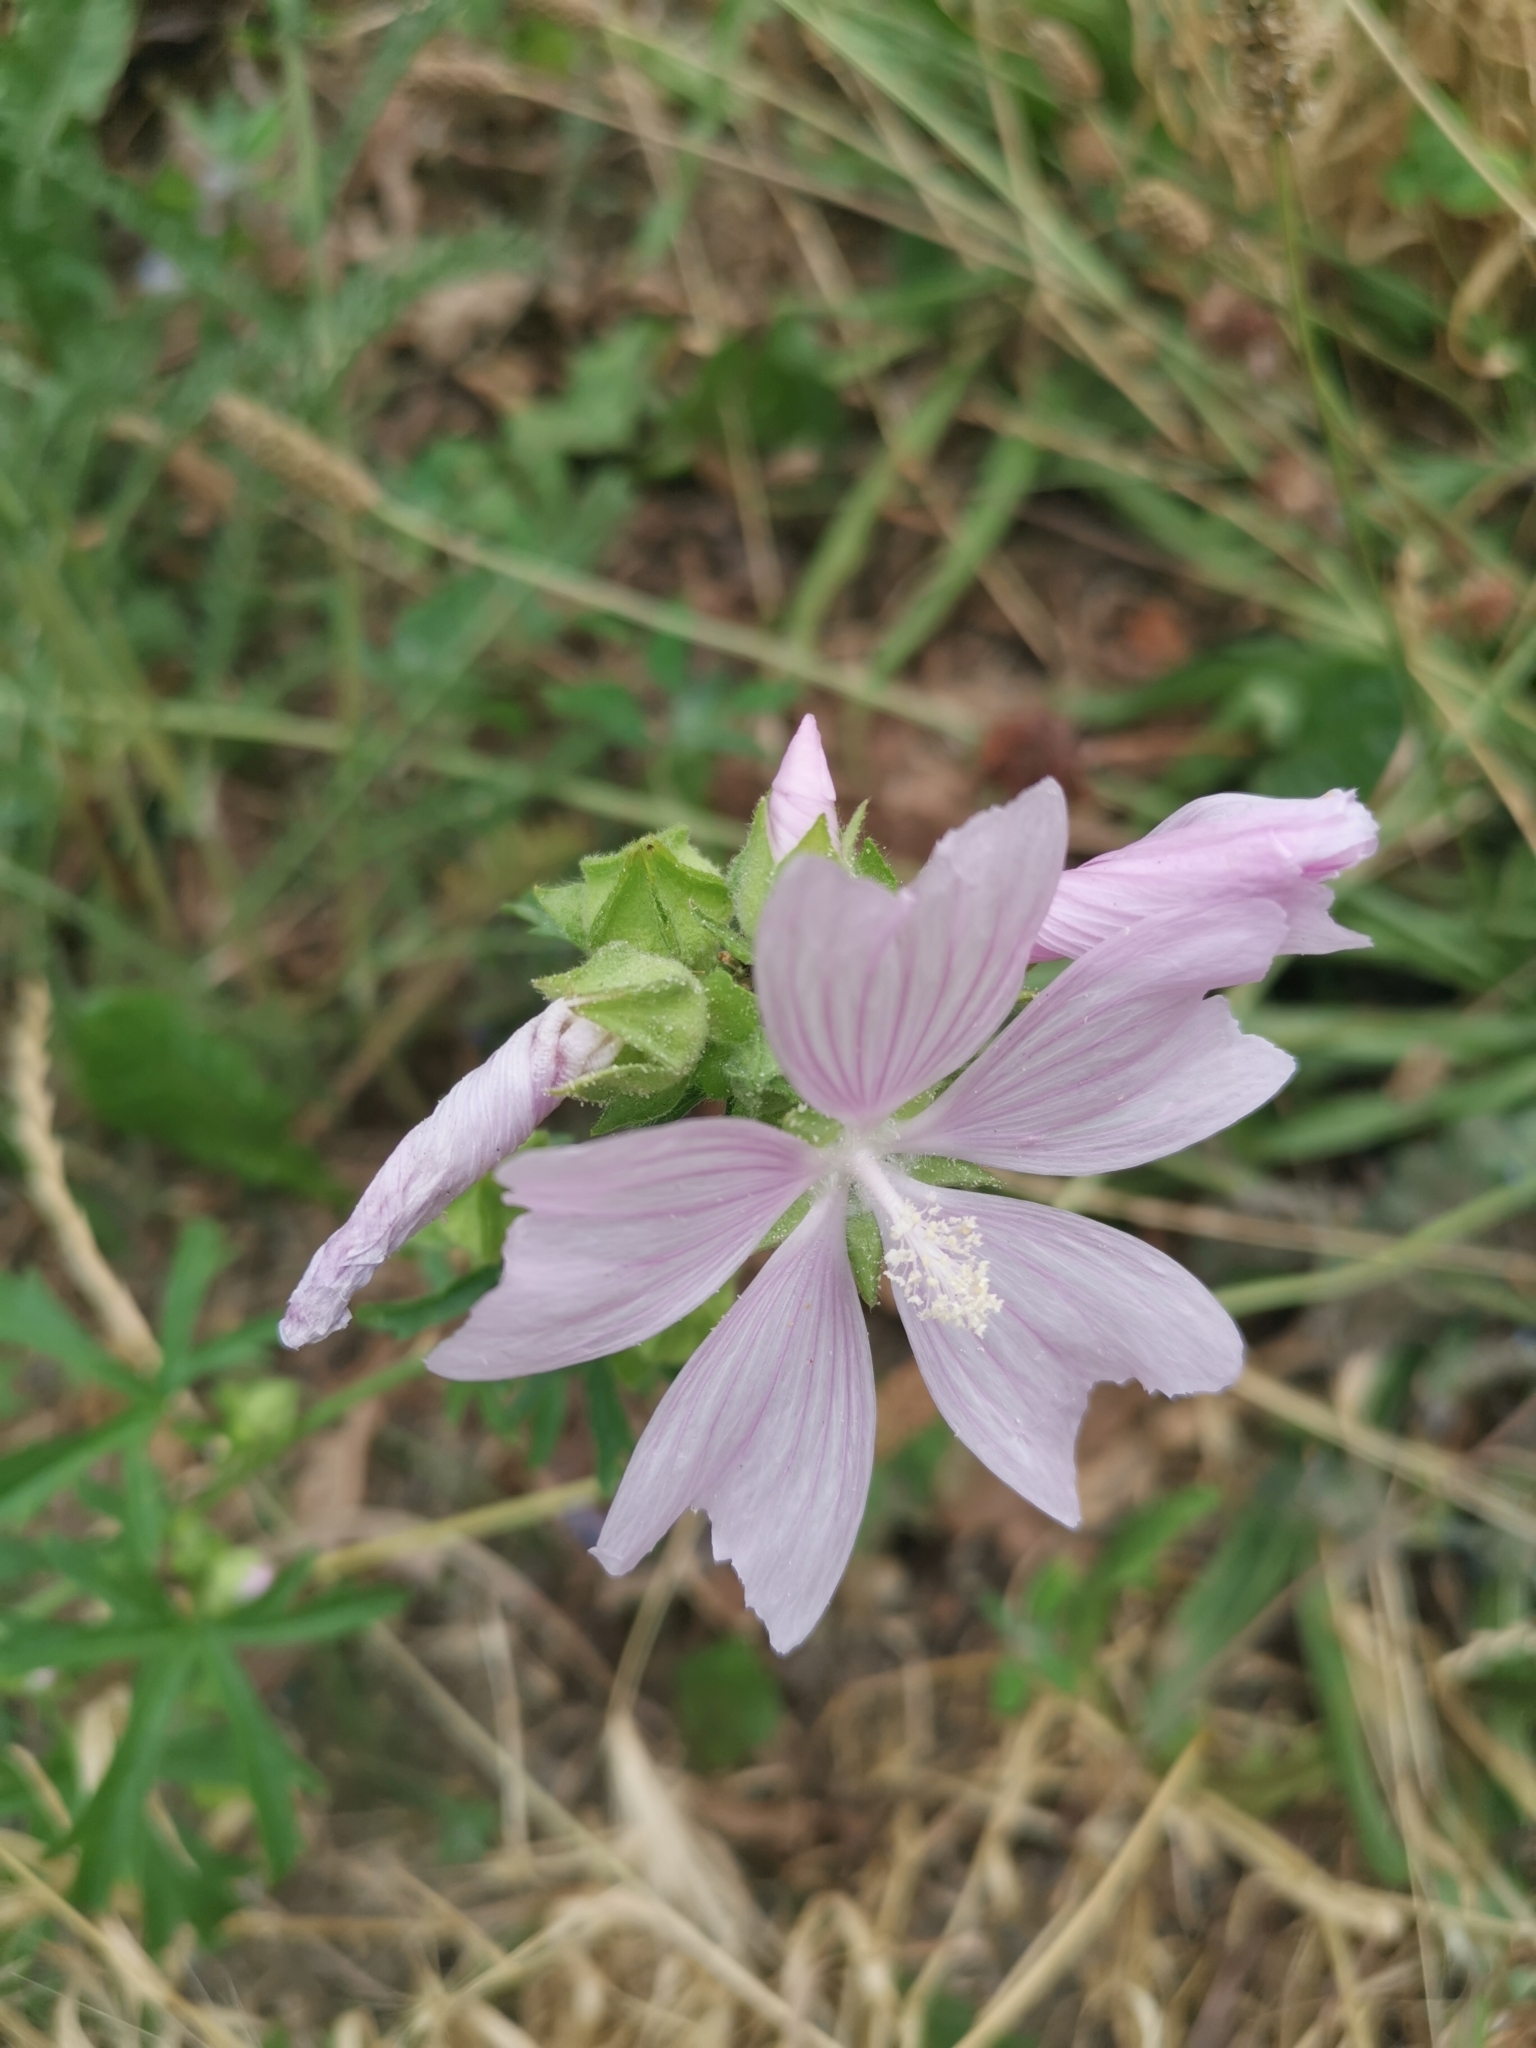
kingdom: Plantae
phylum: Tracheophyta
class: Magnoliopsida
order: Malvales
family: Malvaceae
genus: Malva
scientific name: Malva alcea
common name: Greater musk-mallow
